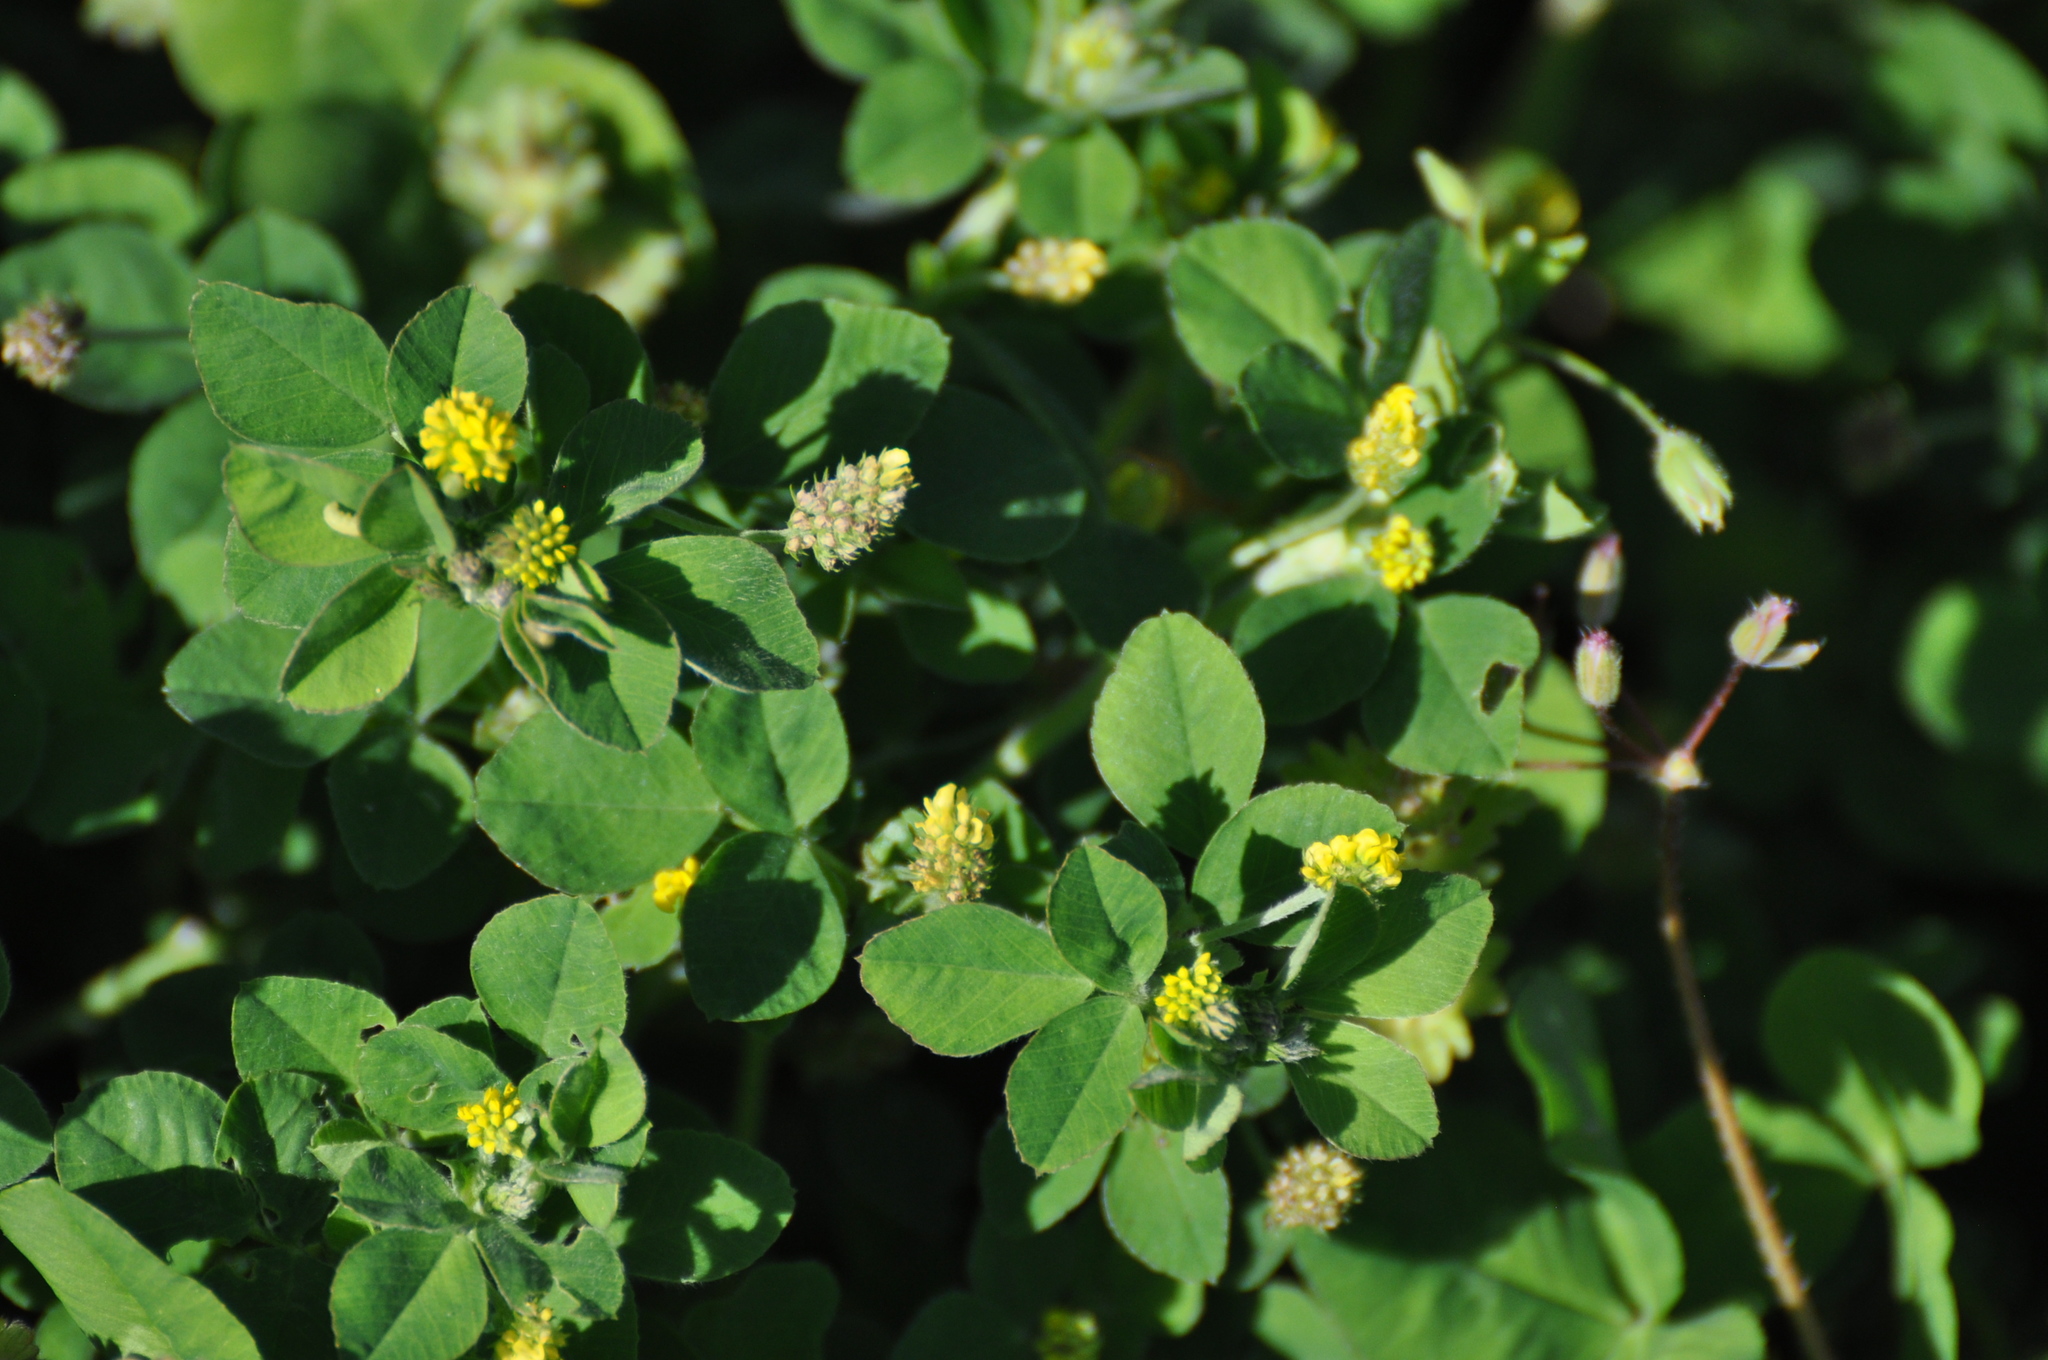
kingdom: Plantae
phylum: Tracheophyta
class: Magnoliopsida
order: Fabales
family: Fabaceae
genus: Medicago
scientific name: Medicago lupulina
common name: Black medick
